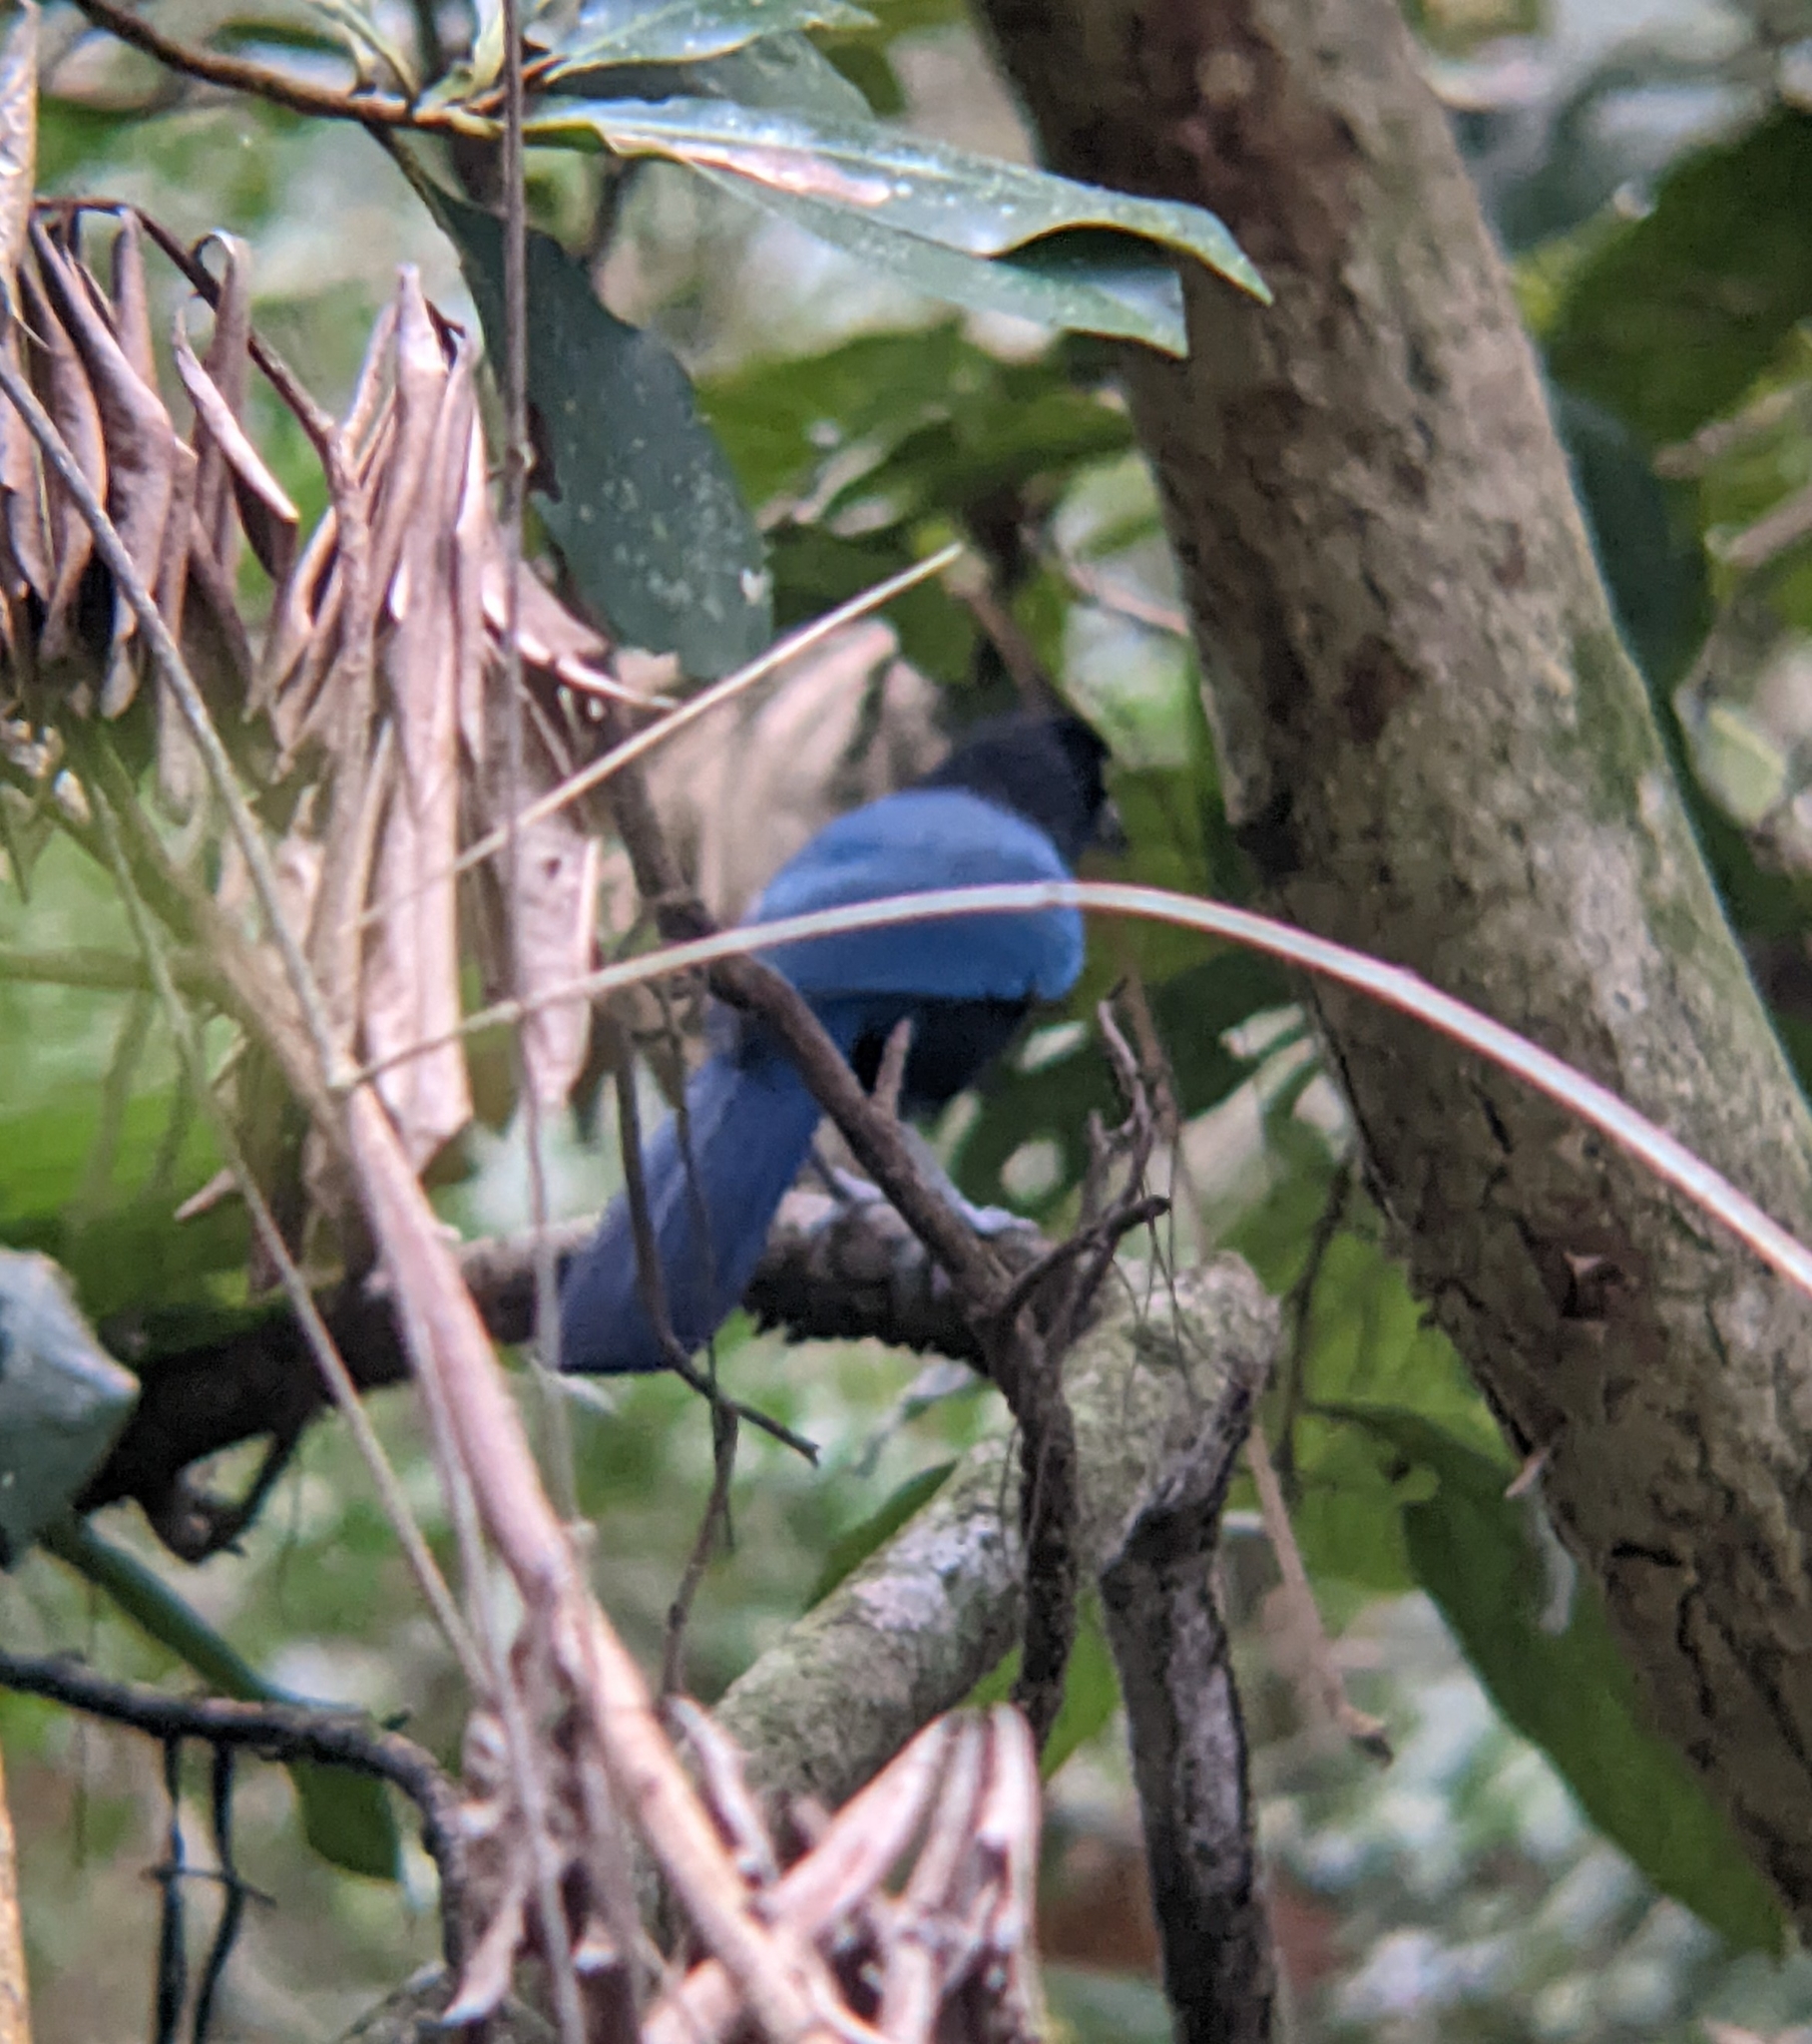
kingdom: Animalia
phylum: Chordata
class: Aves
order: Passeriformes
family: Corvidae
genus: Cyanocorax
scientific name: Cyanocorax sanblasianus
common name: San blas jay
